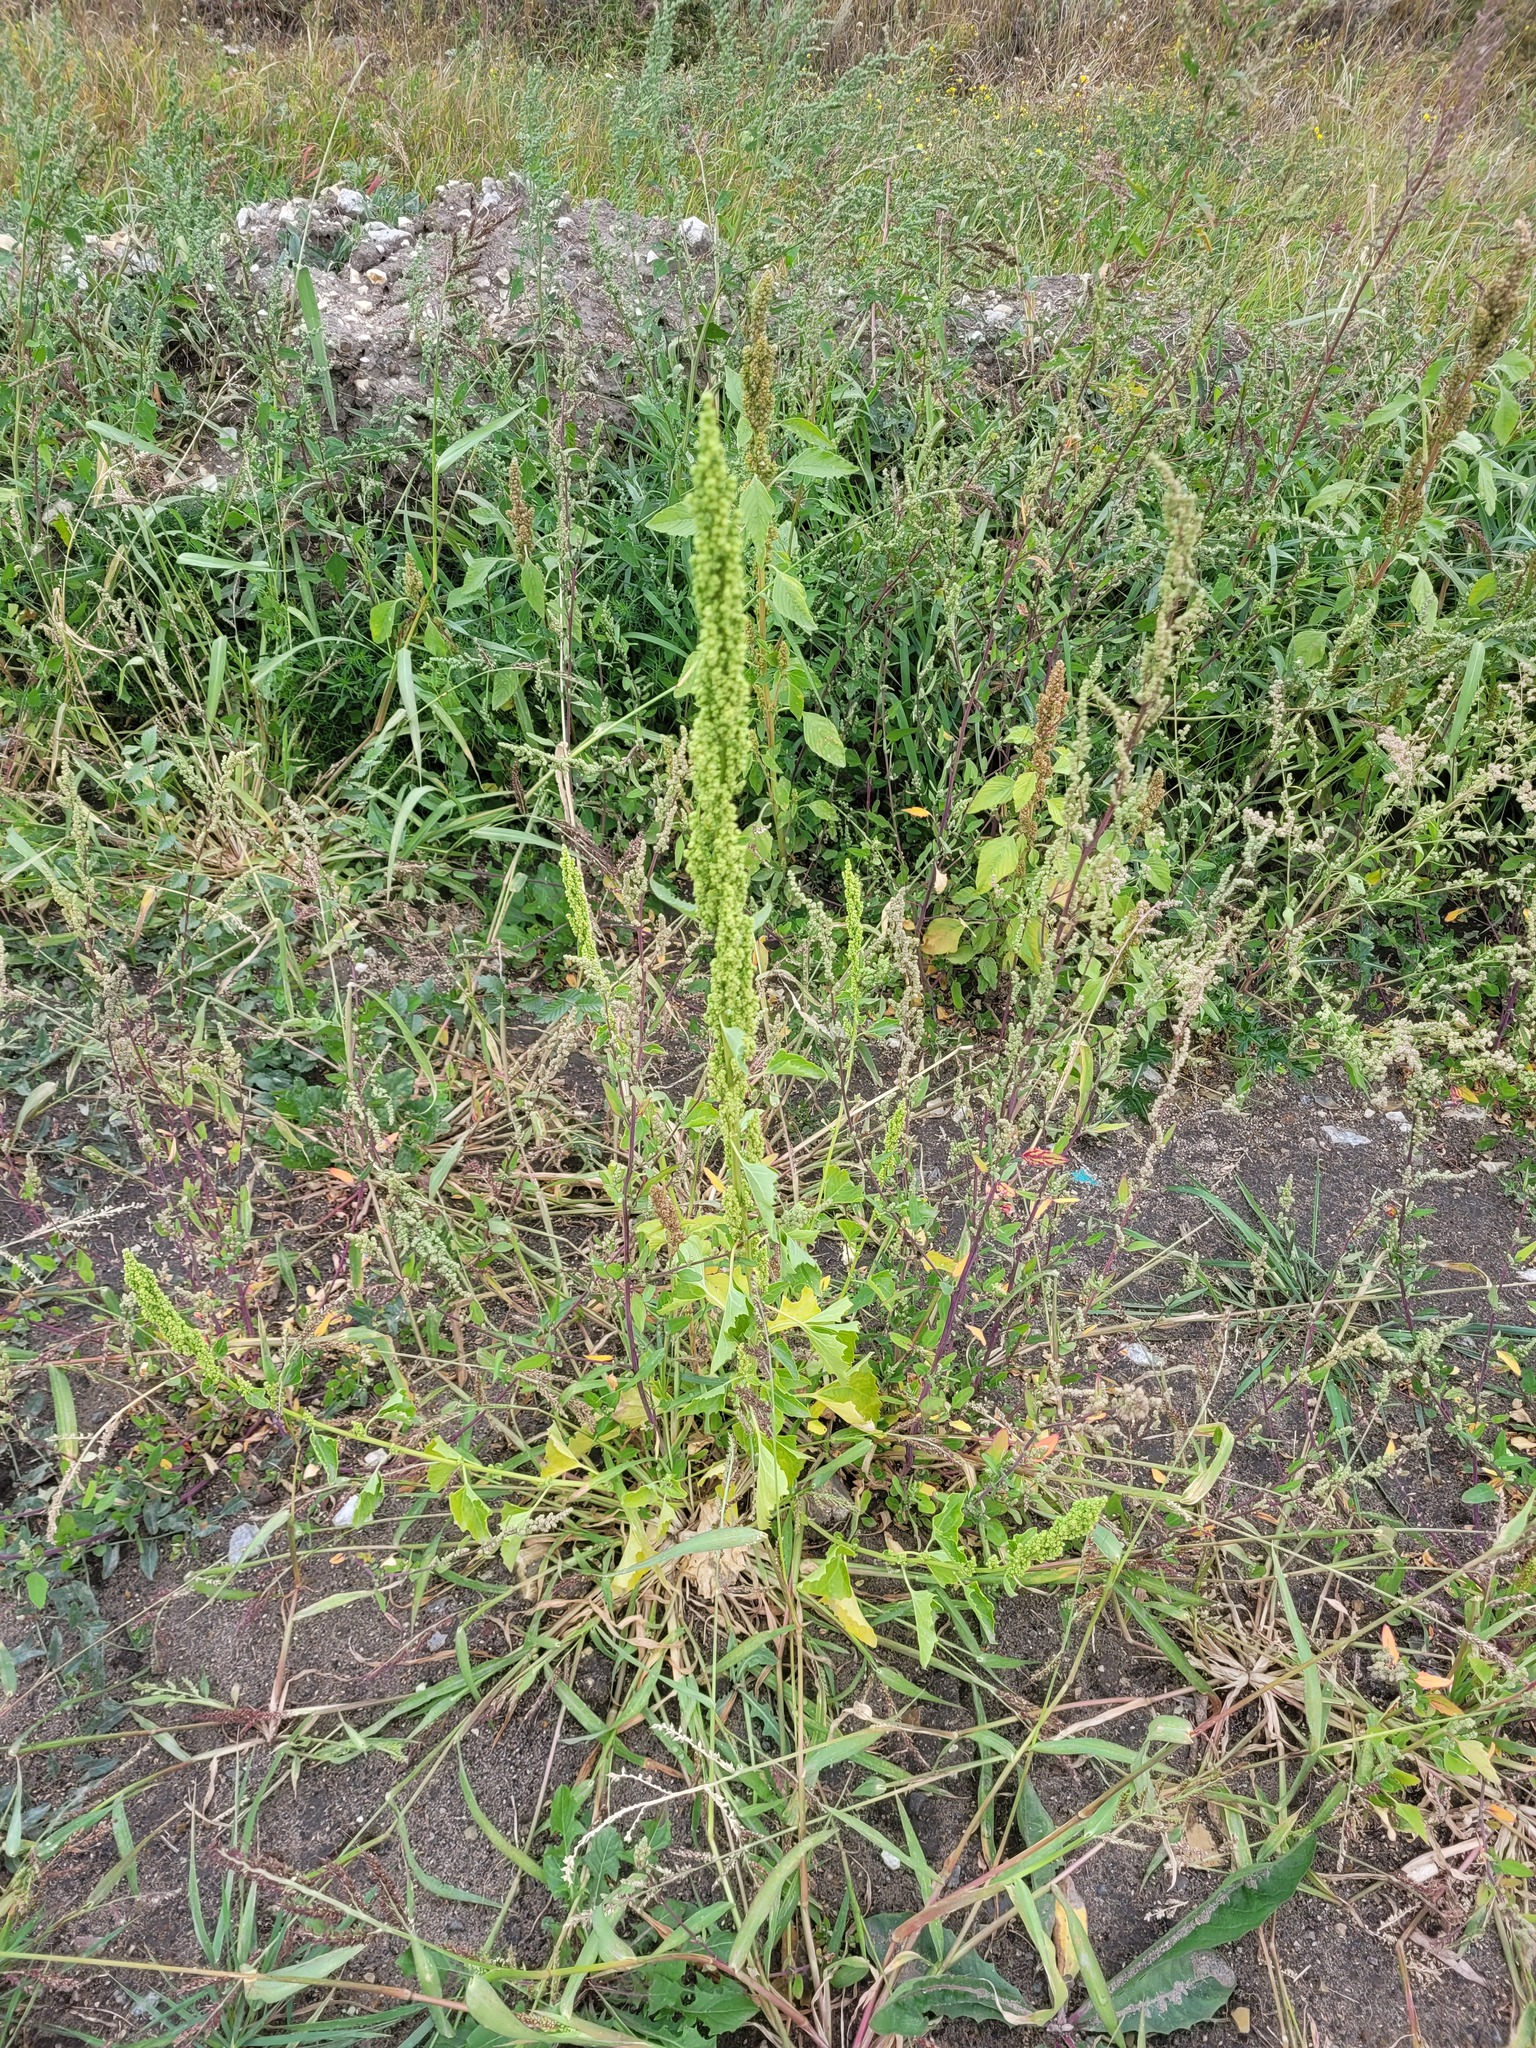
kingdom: Plantae
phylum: Tracheophyta
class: Magnoliopsida
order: Caryophyllales
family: Amaranthaceae
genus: Oxybasis
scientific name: Oxybasis urbica
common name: City goosefoot
